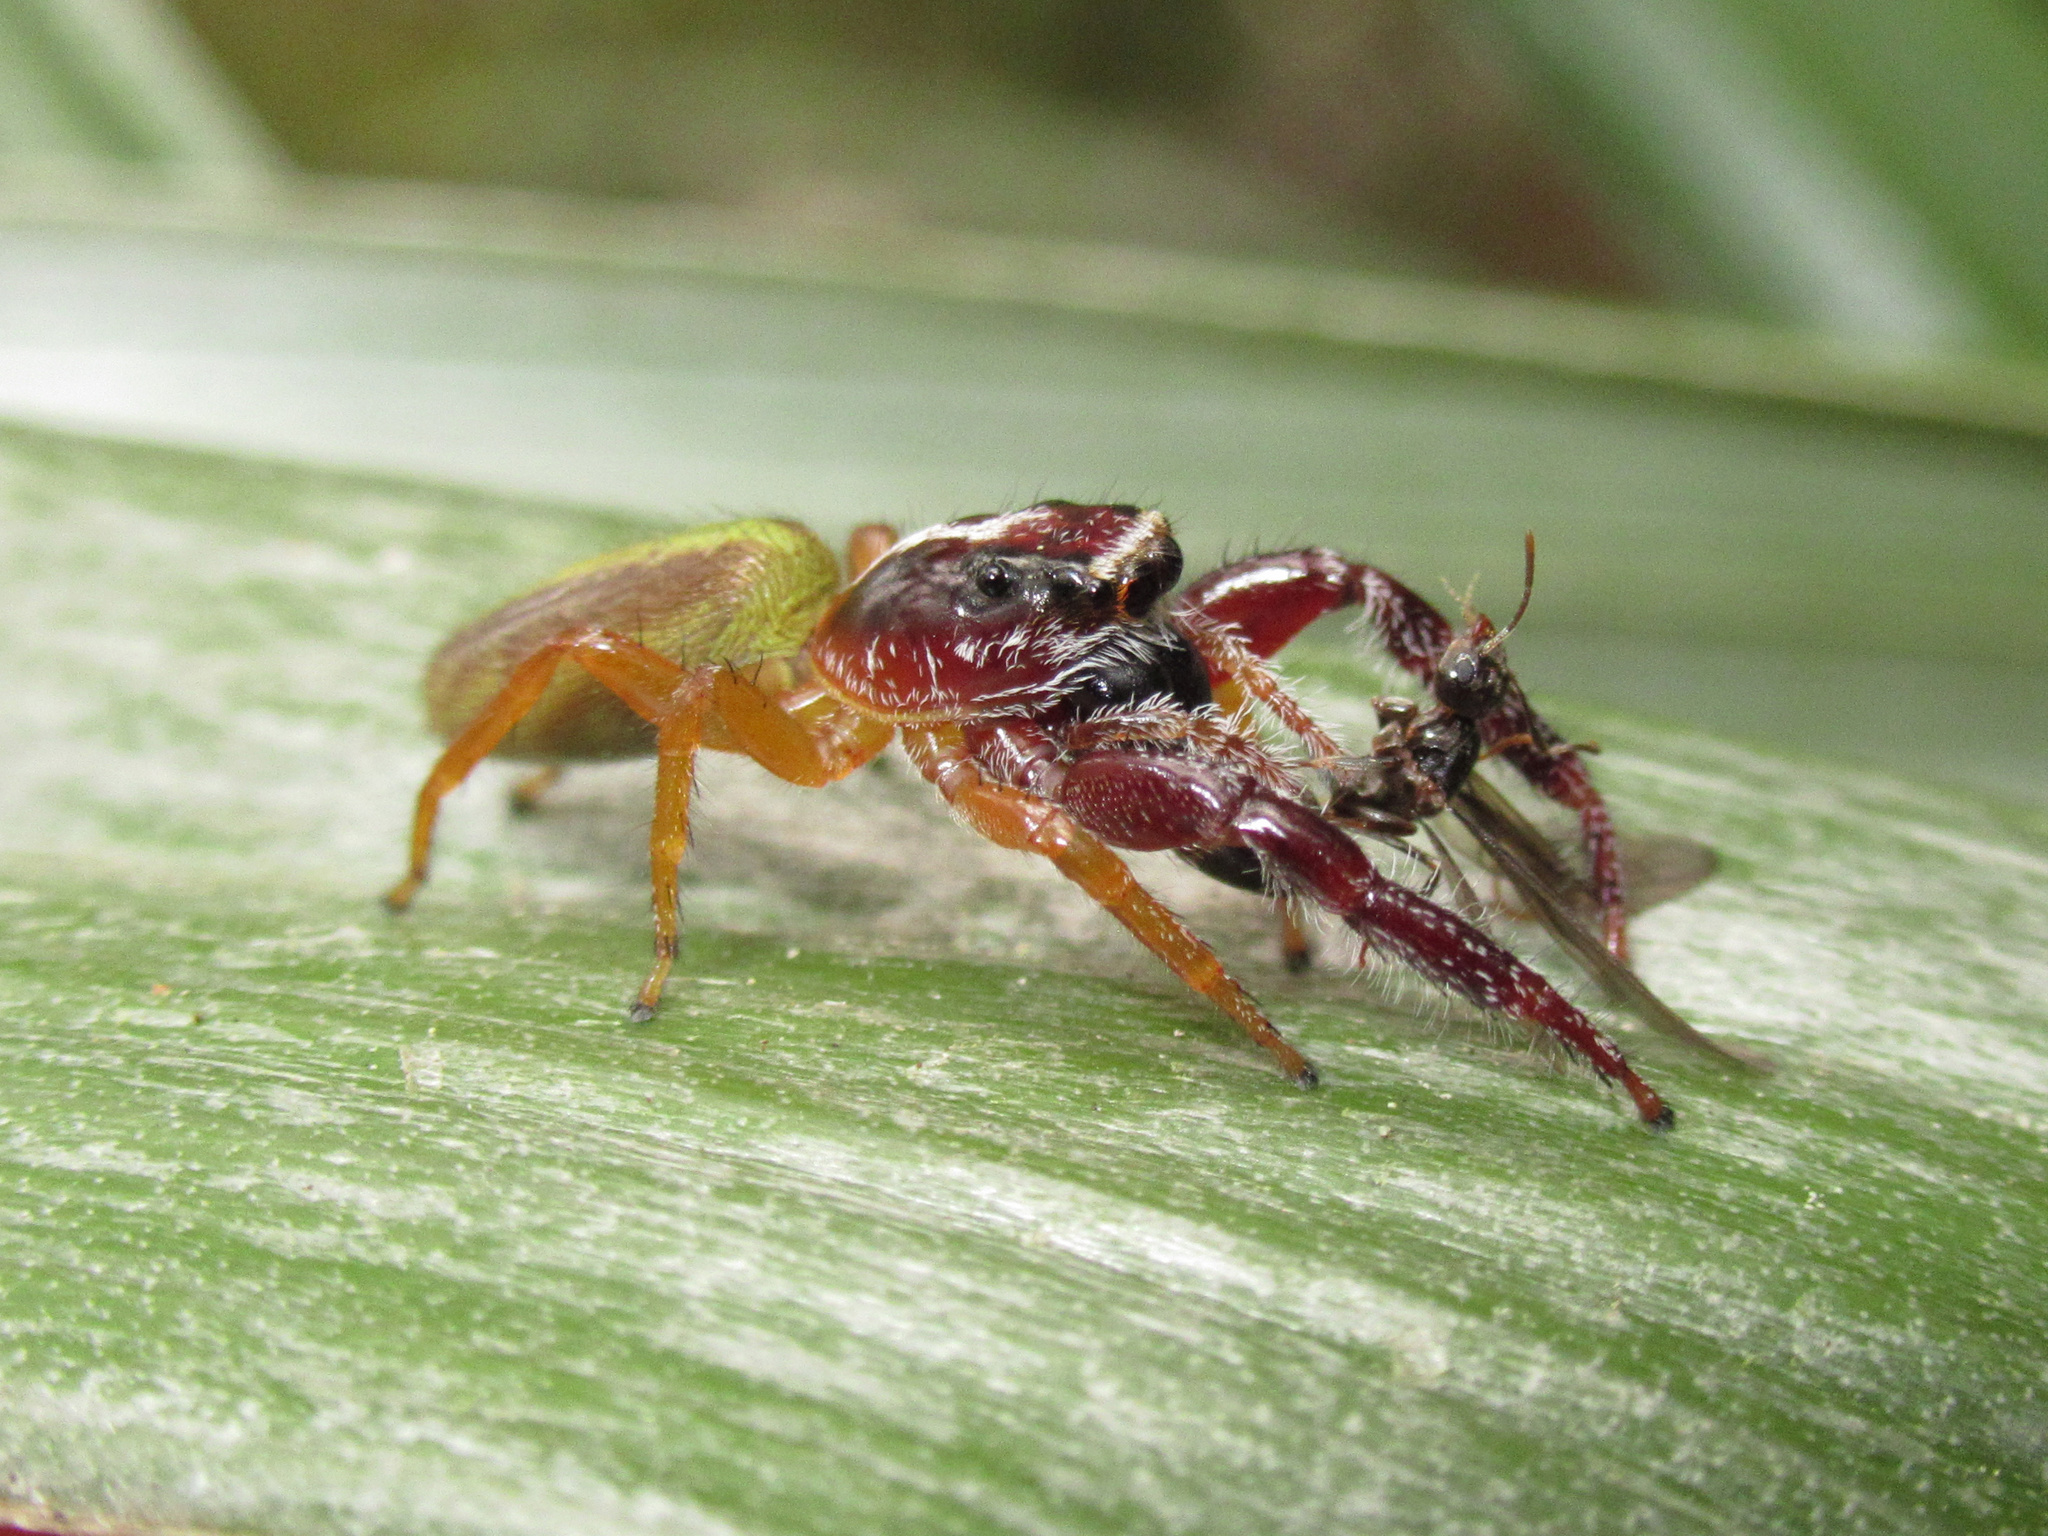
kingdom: Animalia
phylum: Arthropoda
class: Arachnida
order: Araneae
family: Salticidae
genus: Trite
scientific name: Trite planiceps
